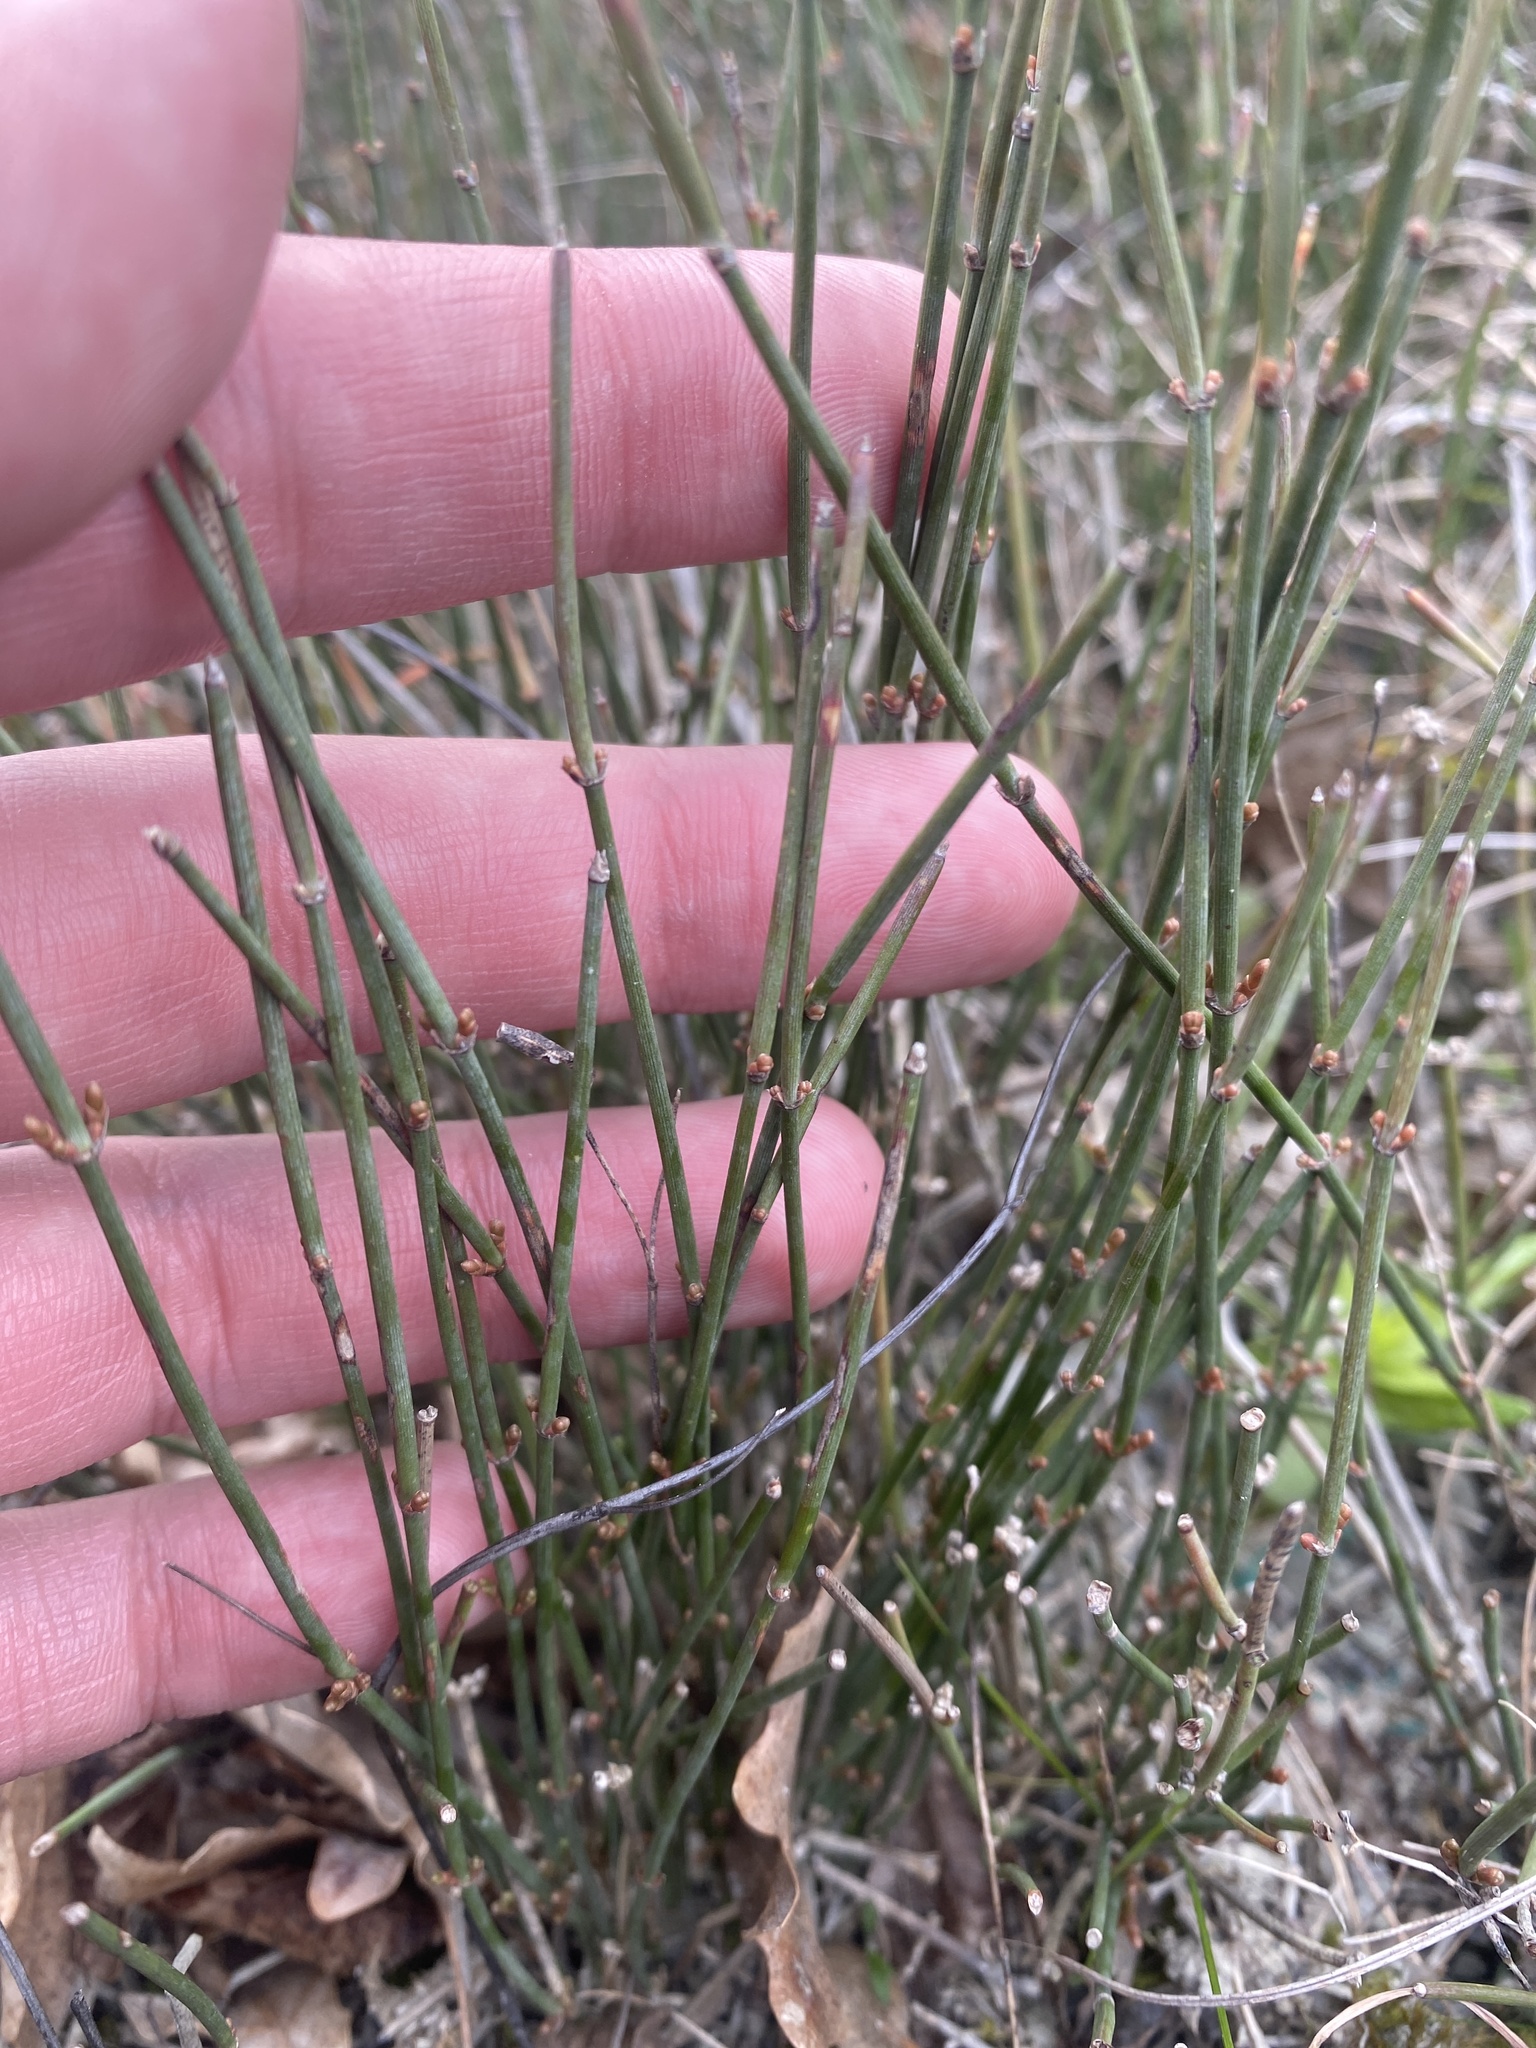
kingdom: Plantae
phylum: Tracheophyta
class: Gnetopsida
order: Ephedrales
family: Ephedraceae
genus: Ephedra
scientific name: Ephedra distachya
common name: Sea grape
